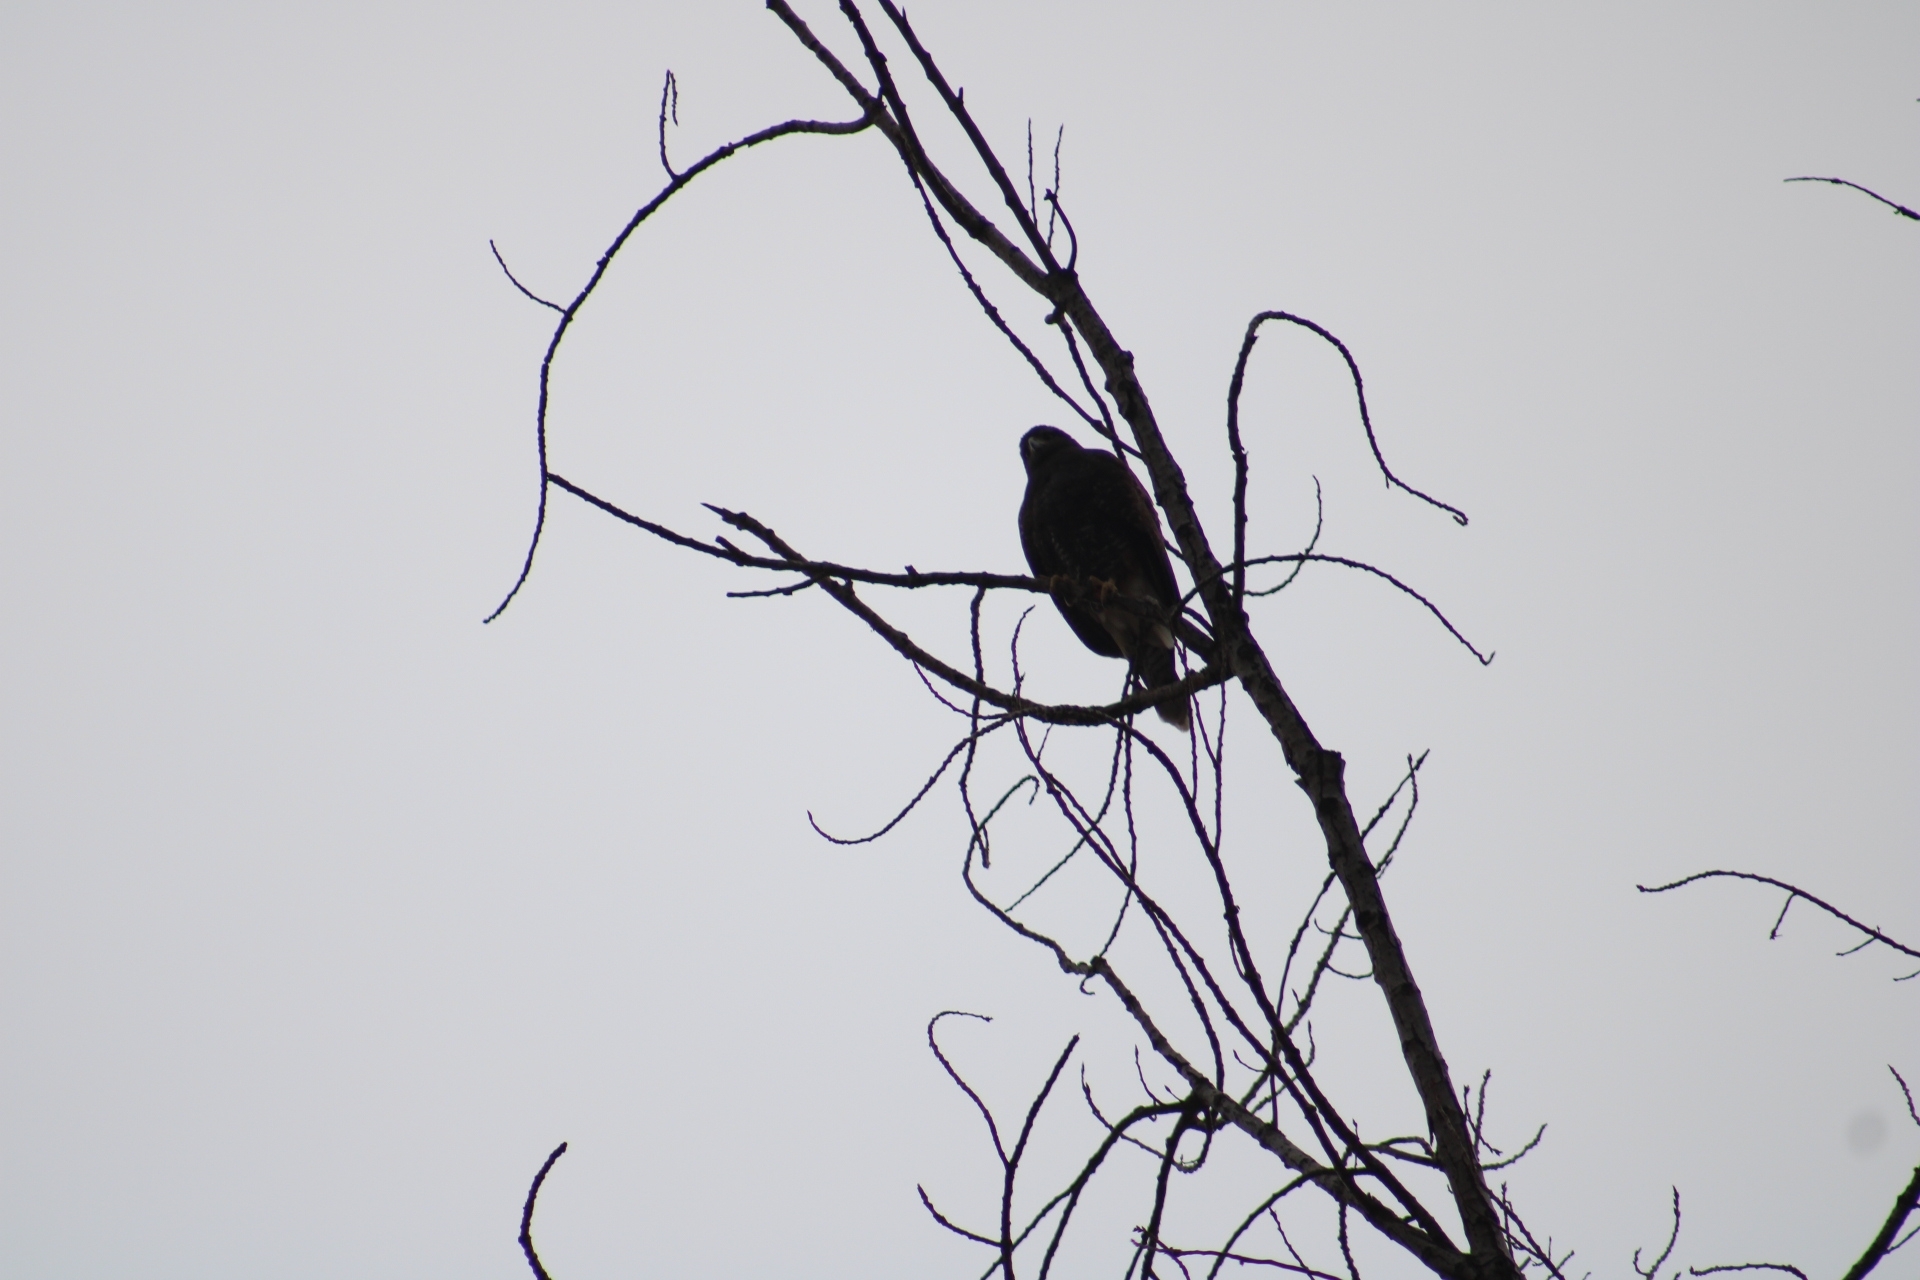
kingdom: Animalia
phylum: Chordata
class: Aves
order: Accipitriformes
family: Accipitridae
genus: Parabuteo
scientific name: Parabuteo unicinctus
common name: Harris's hawk
